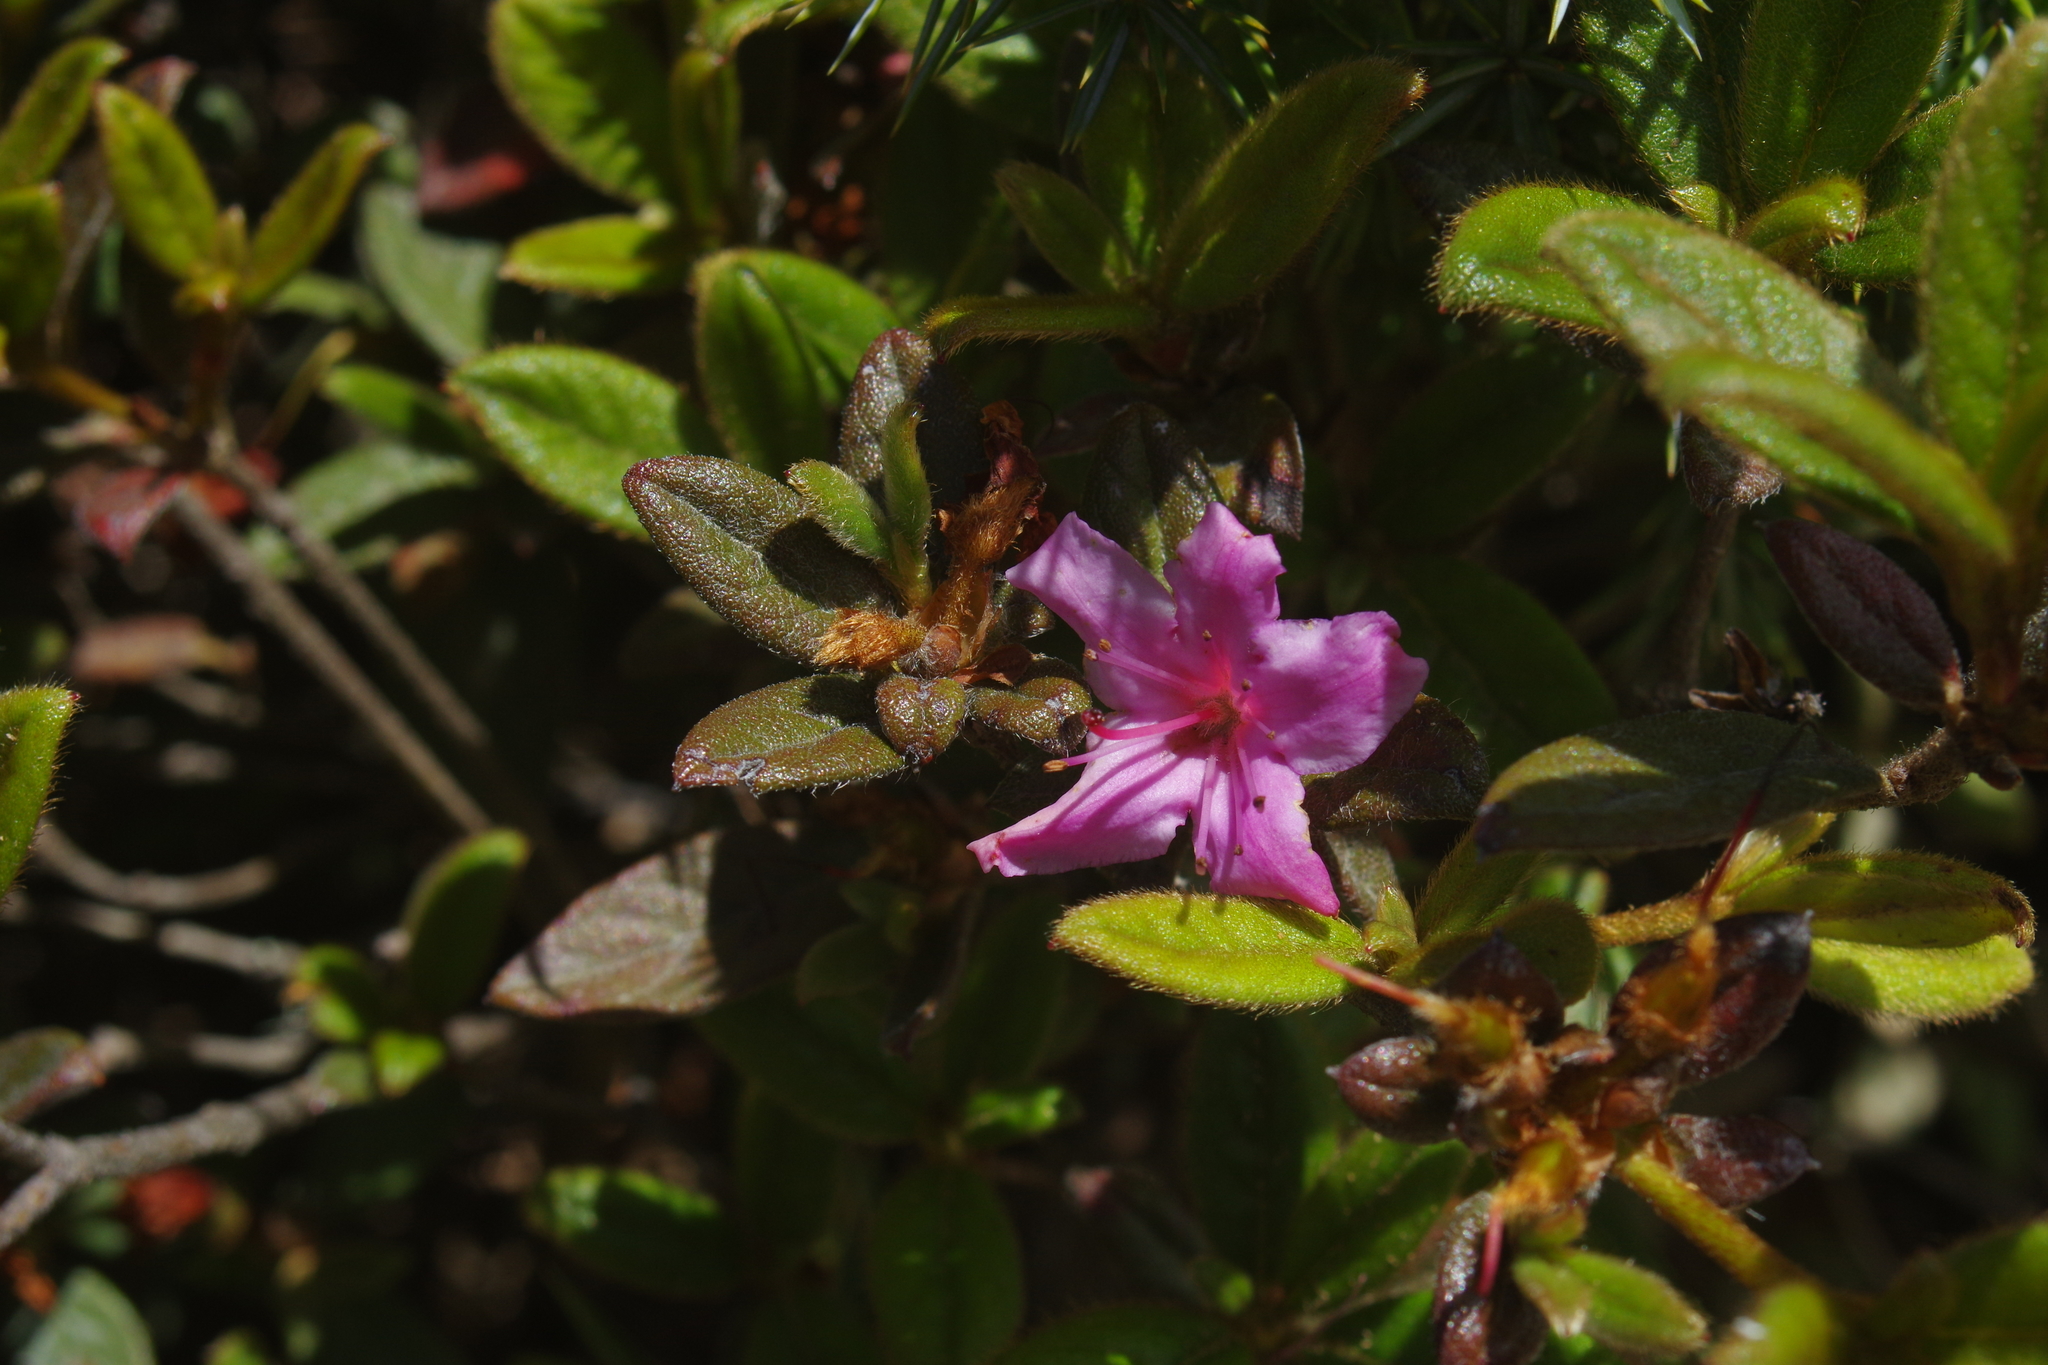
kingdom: Plantae
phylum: Tracheophyta
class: Magnoliopsida
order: Ericales
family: Ericaceae
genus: Rhododendron
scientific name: Rhododendron rubropilosum
